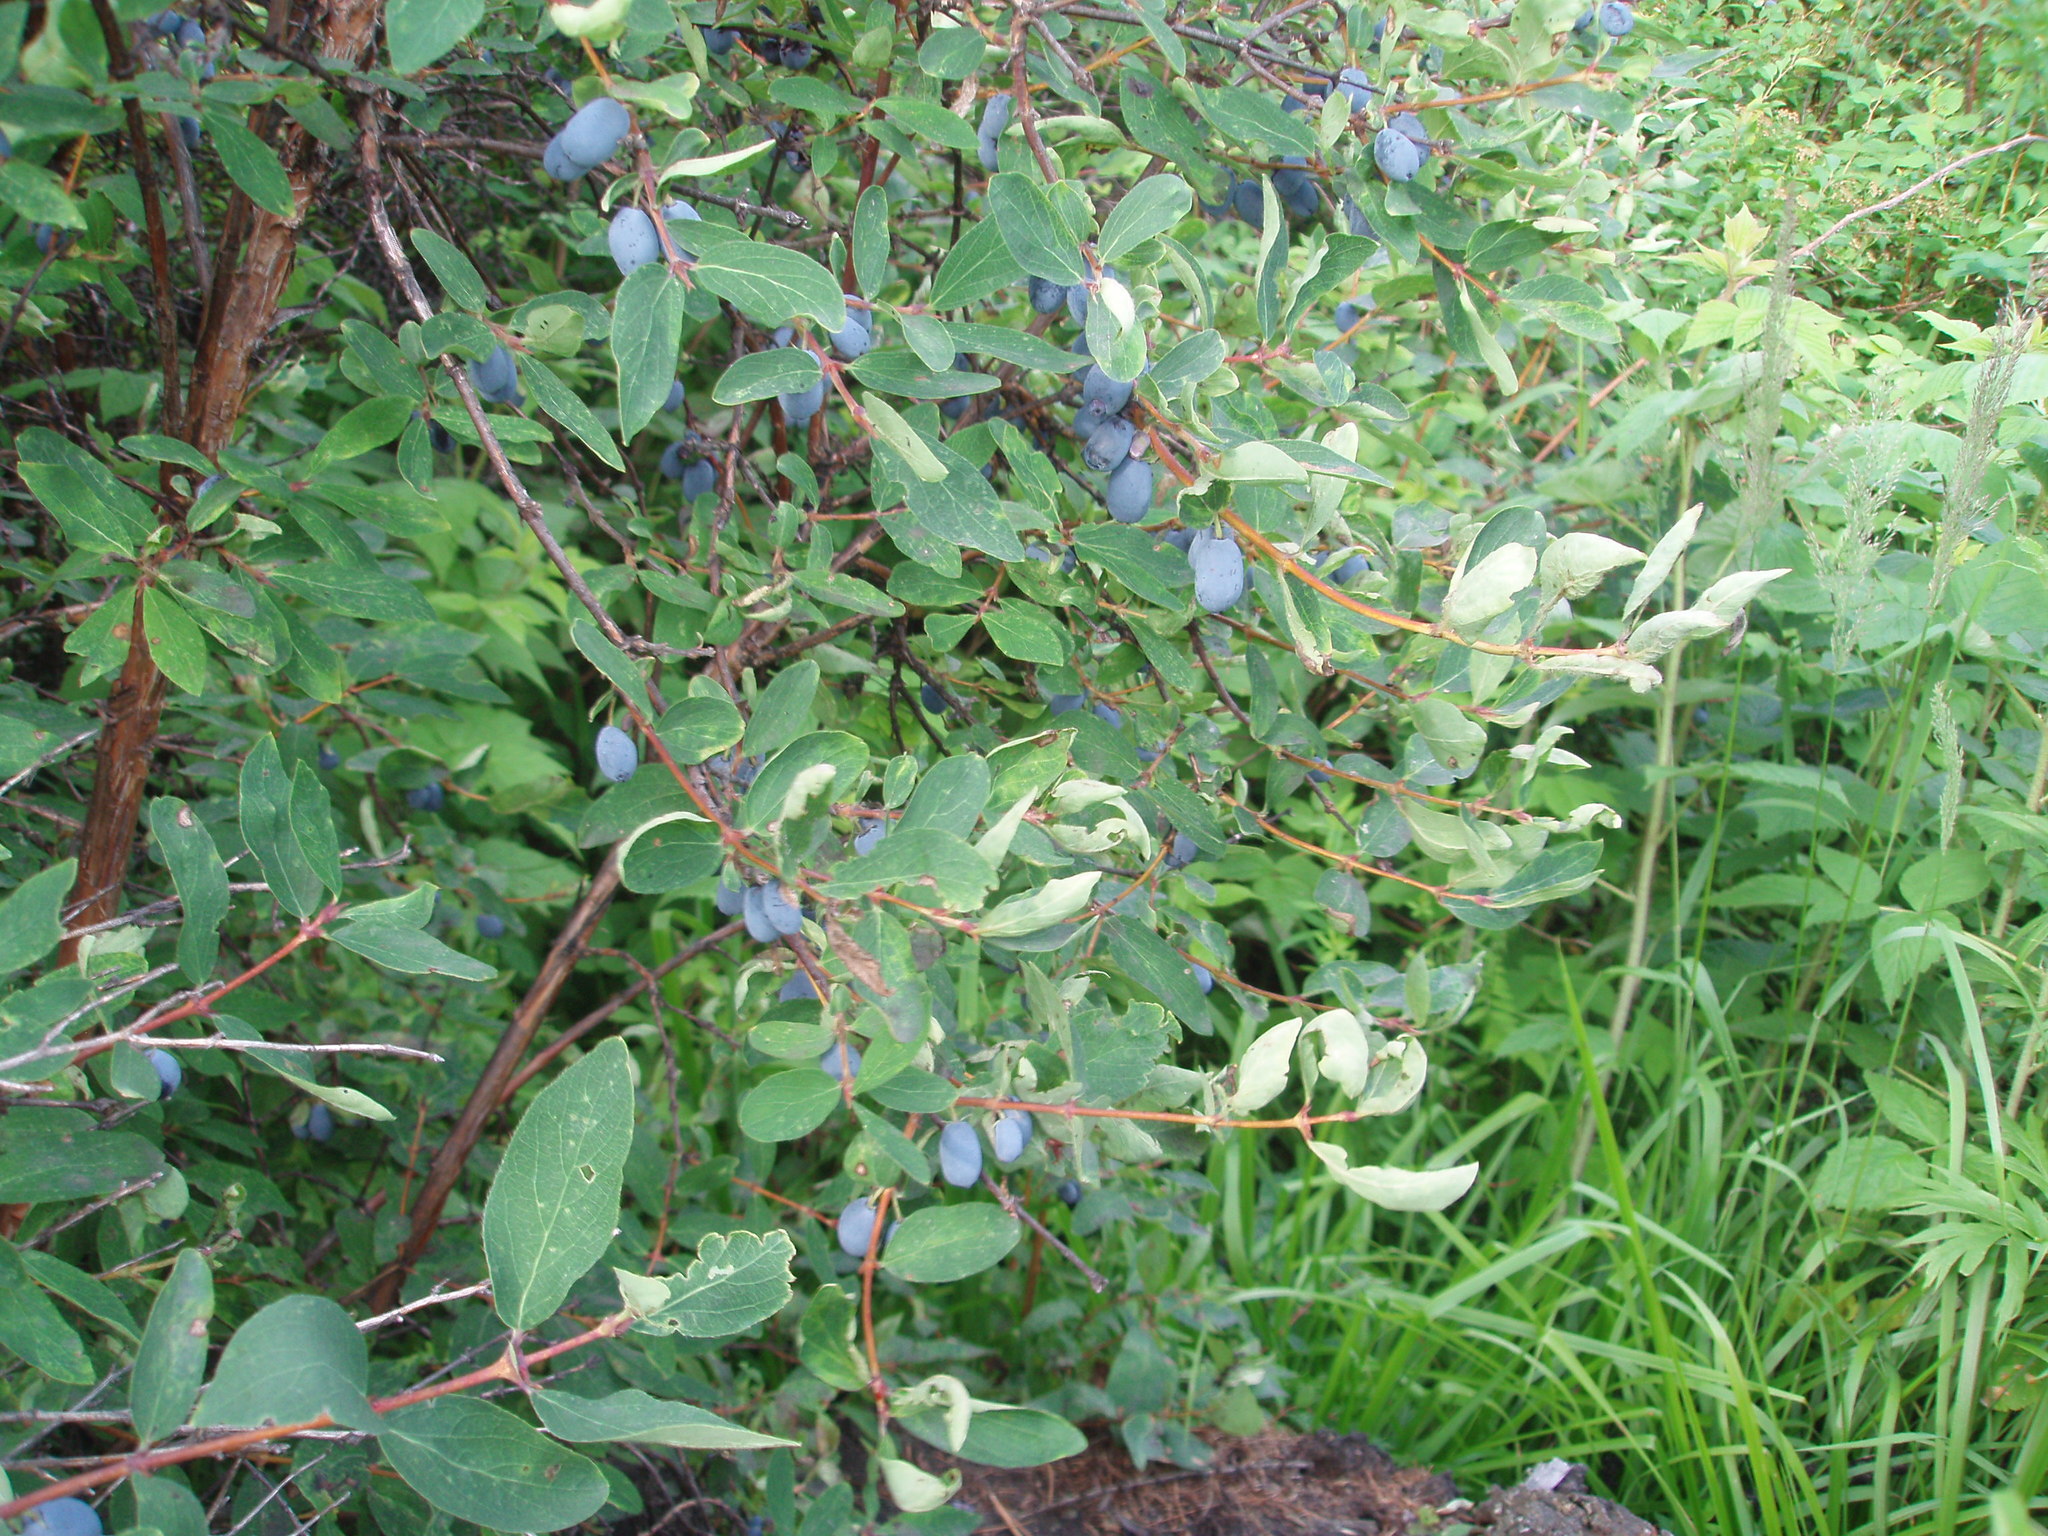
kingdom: Plantae
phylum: Tracheophyta
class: Magnoliopsida
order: Dipsacales
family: Caprifoliaceae
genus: Lonicera
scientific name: Lonicera caerulea
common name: Blue honeysuckle
